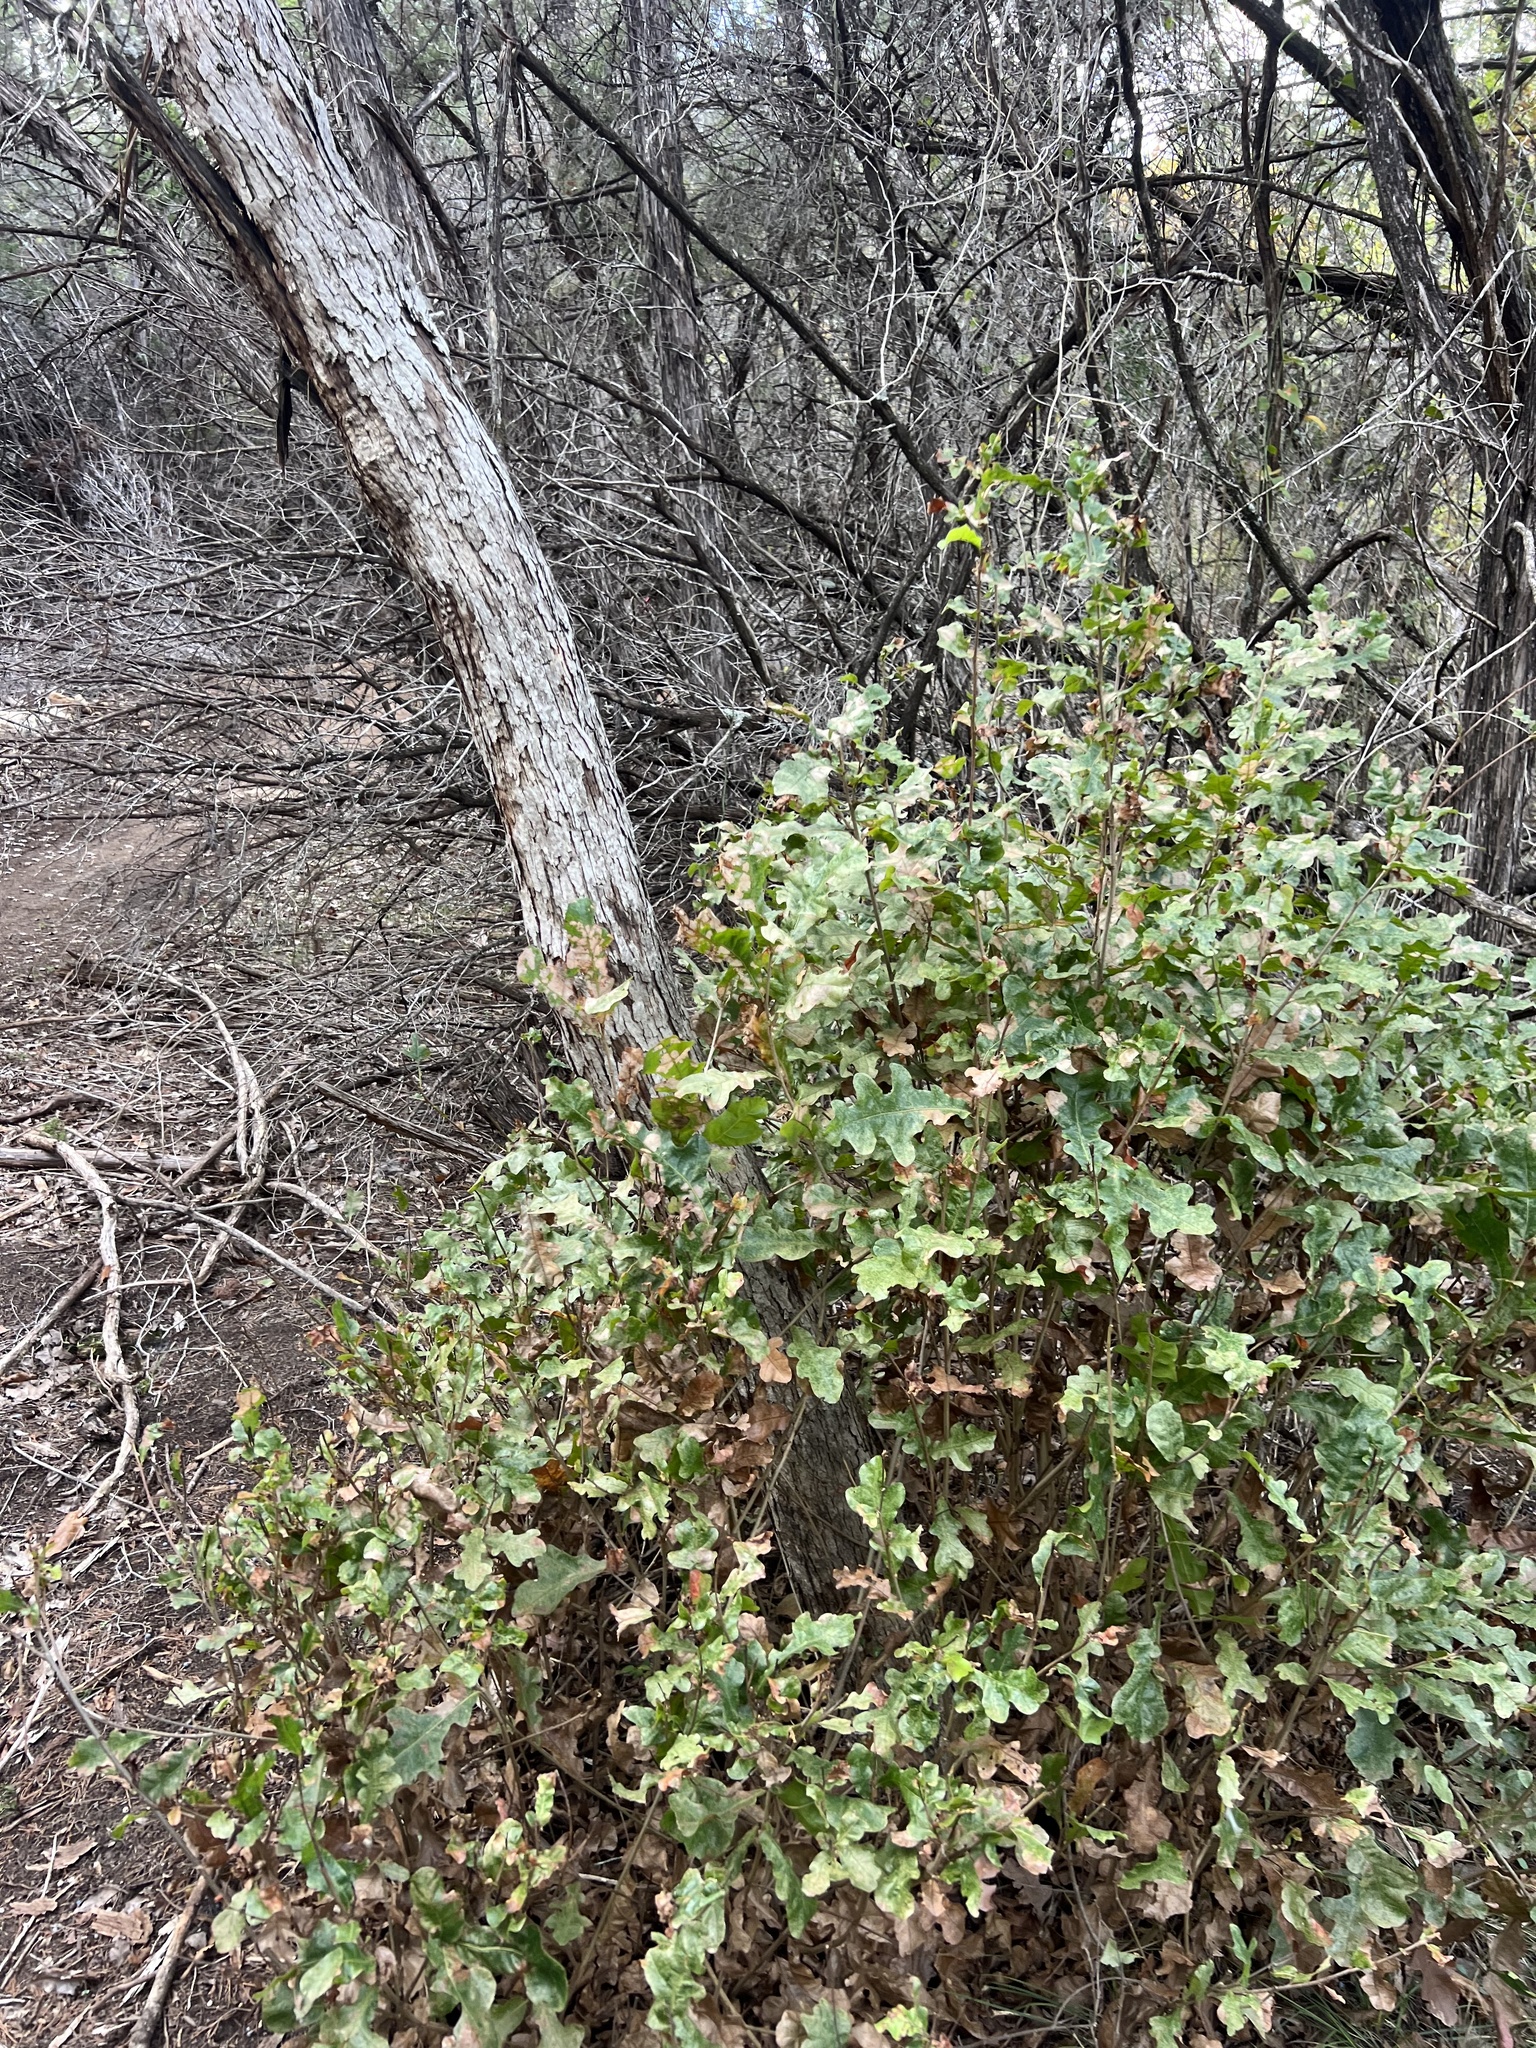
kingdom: Plantae
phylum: Tracheophyta
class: Magnoliopsida
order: Fagales
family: Fagaceae
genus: Quercus
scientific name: Quercus sinuata
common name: Durand oak
